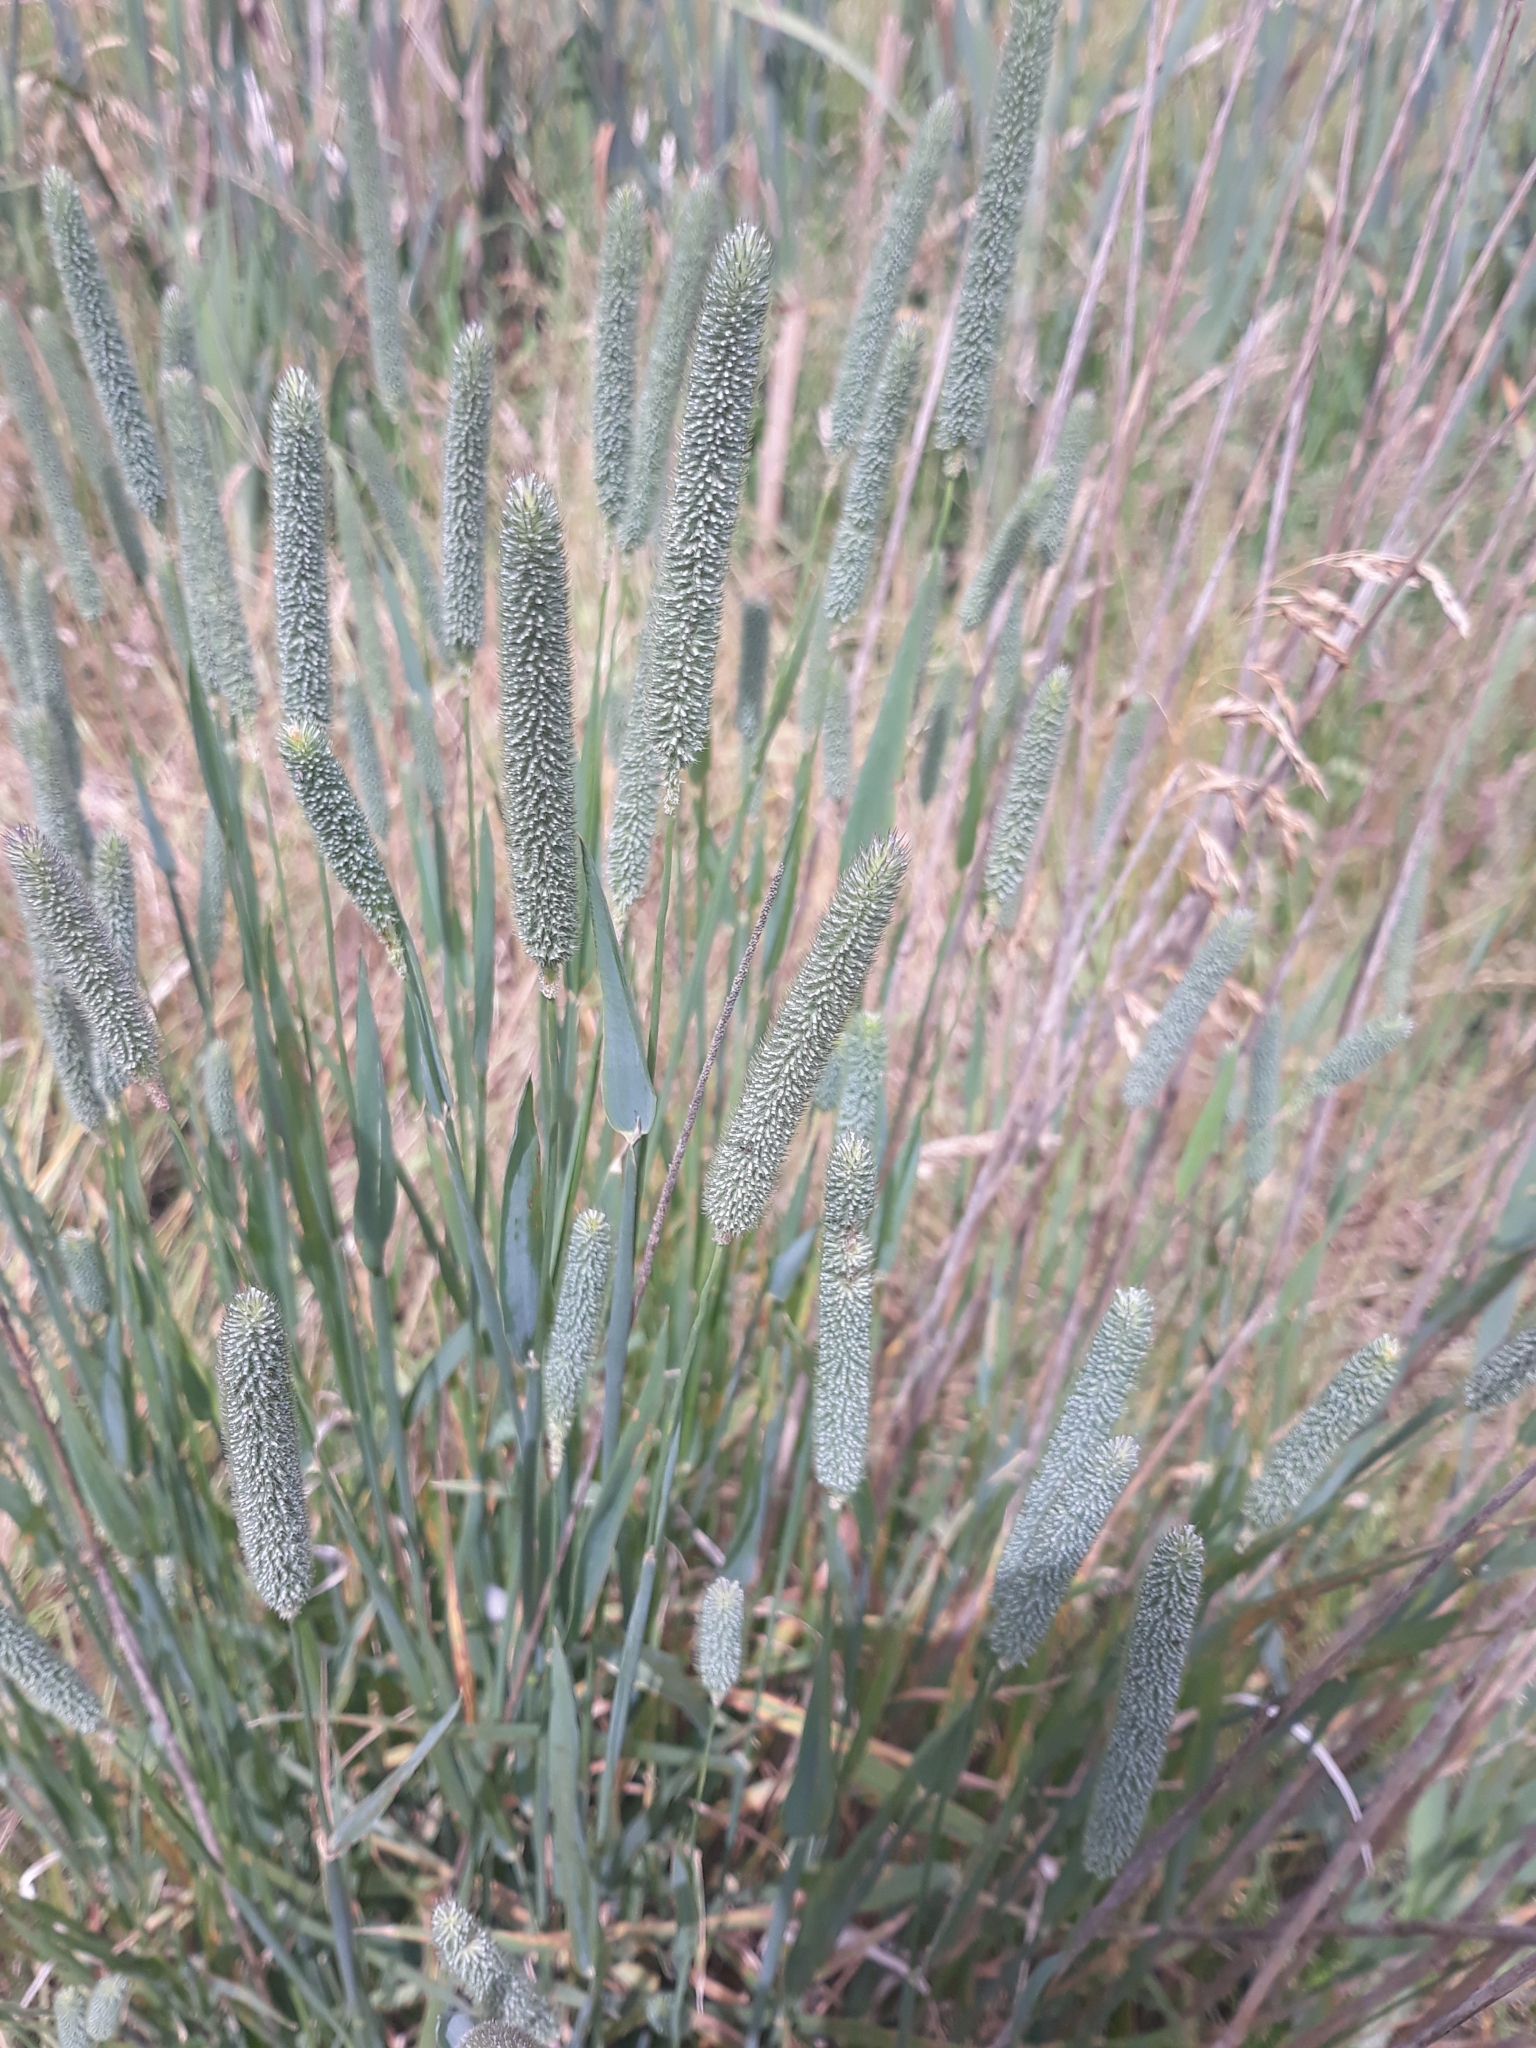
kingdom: Plantae
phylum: Tracheophyta
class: Liliopsida
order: Poales
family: Poaceae
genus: Phleum
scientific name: Phleum pratense
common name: Timothy grass
